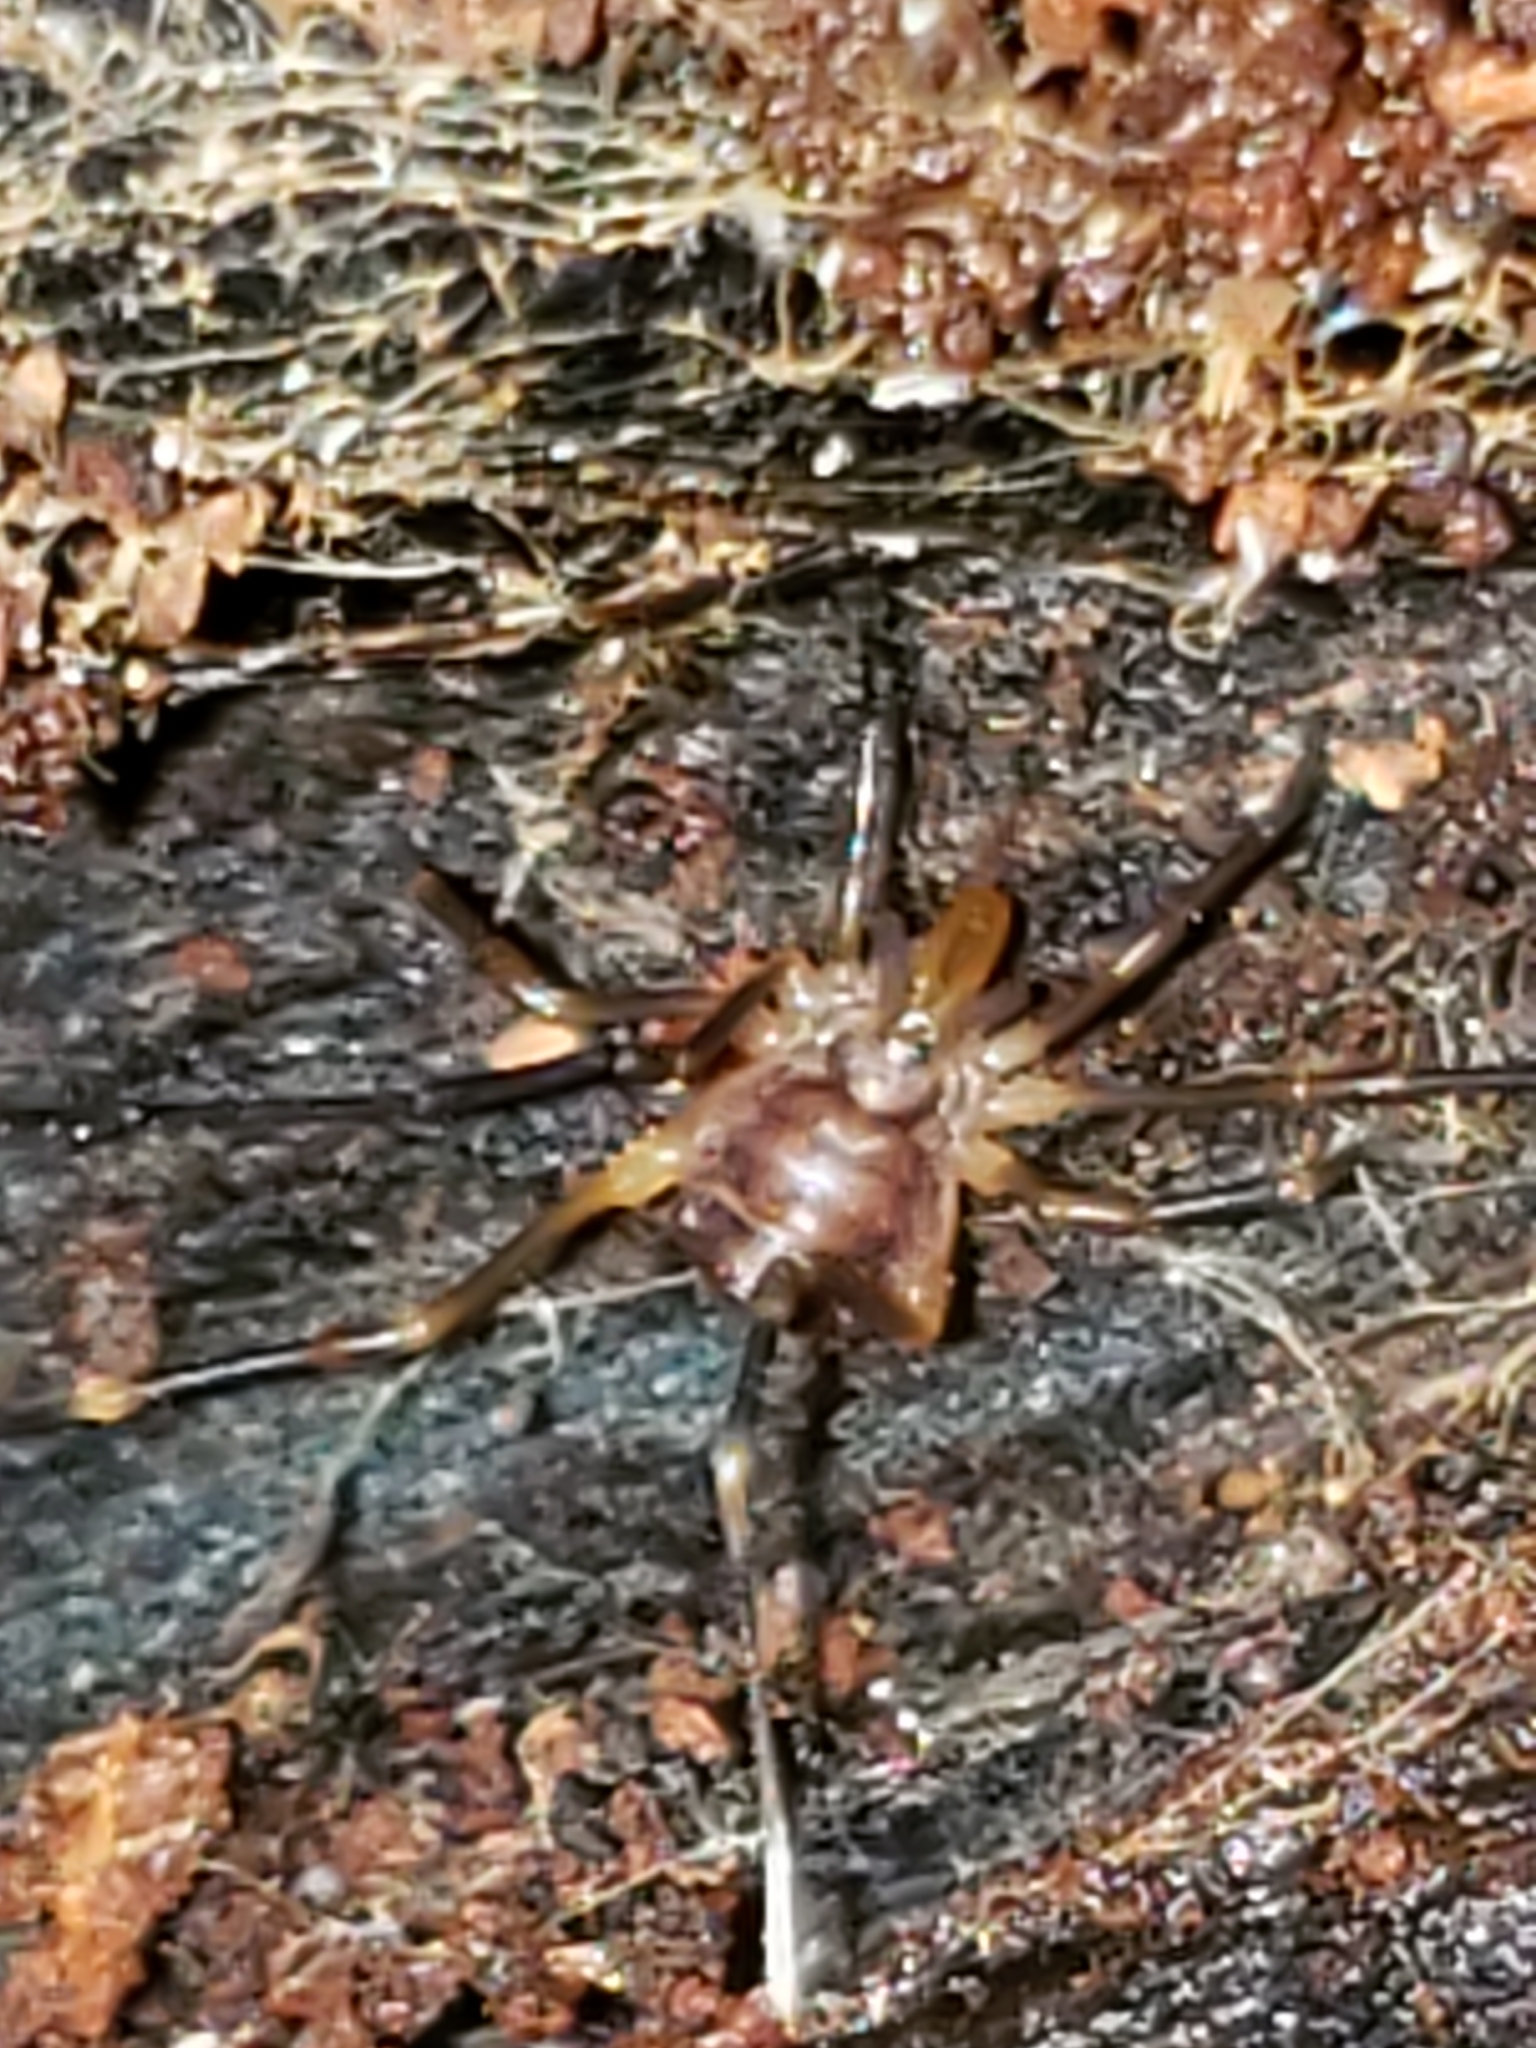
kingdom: Animalia
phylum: Arthropoda
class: Arachnida
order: Opiliones
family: Cosmetidae
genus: Libitioides
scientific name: Libitioides sayi
